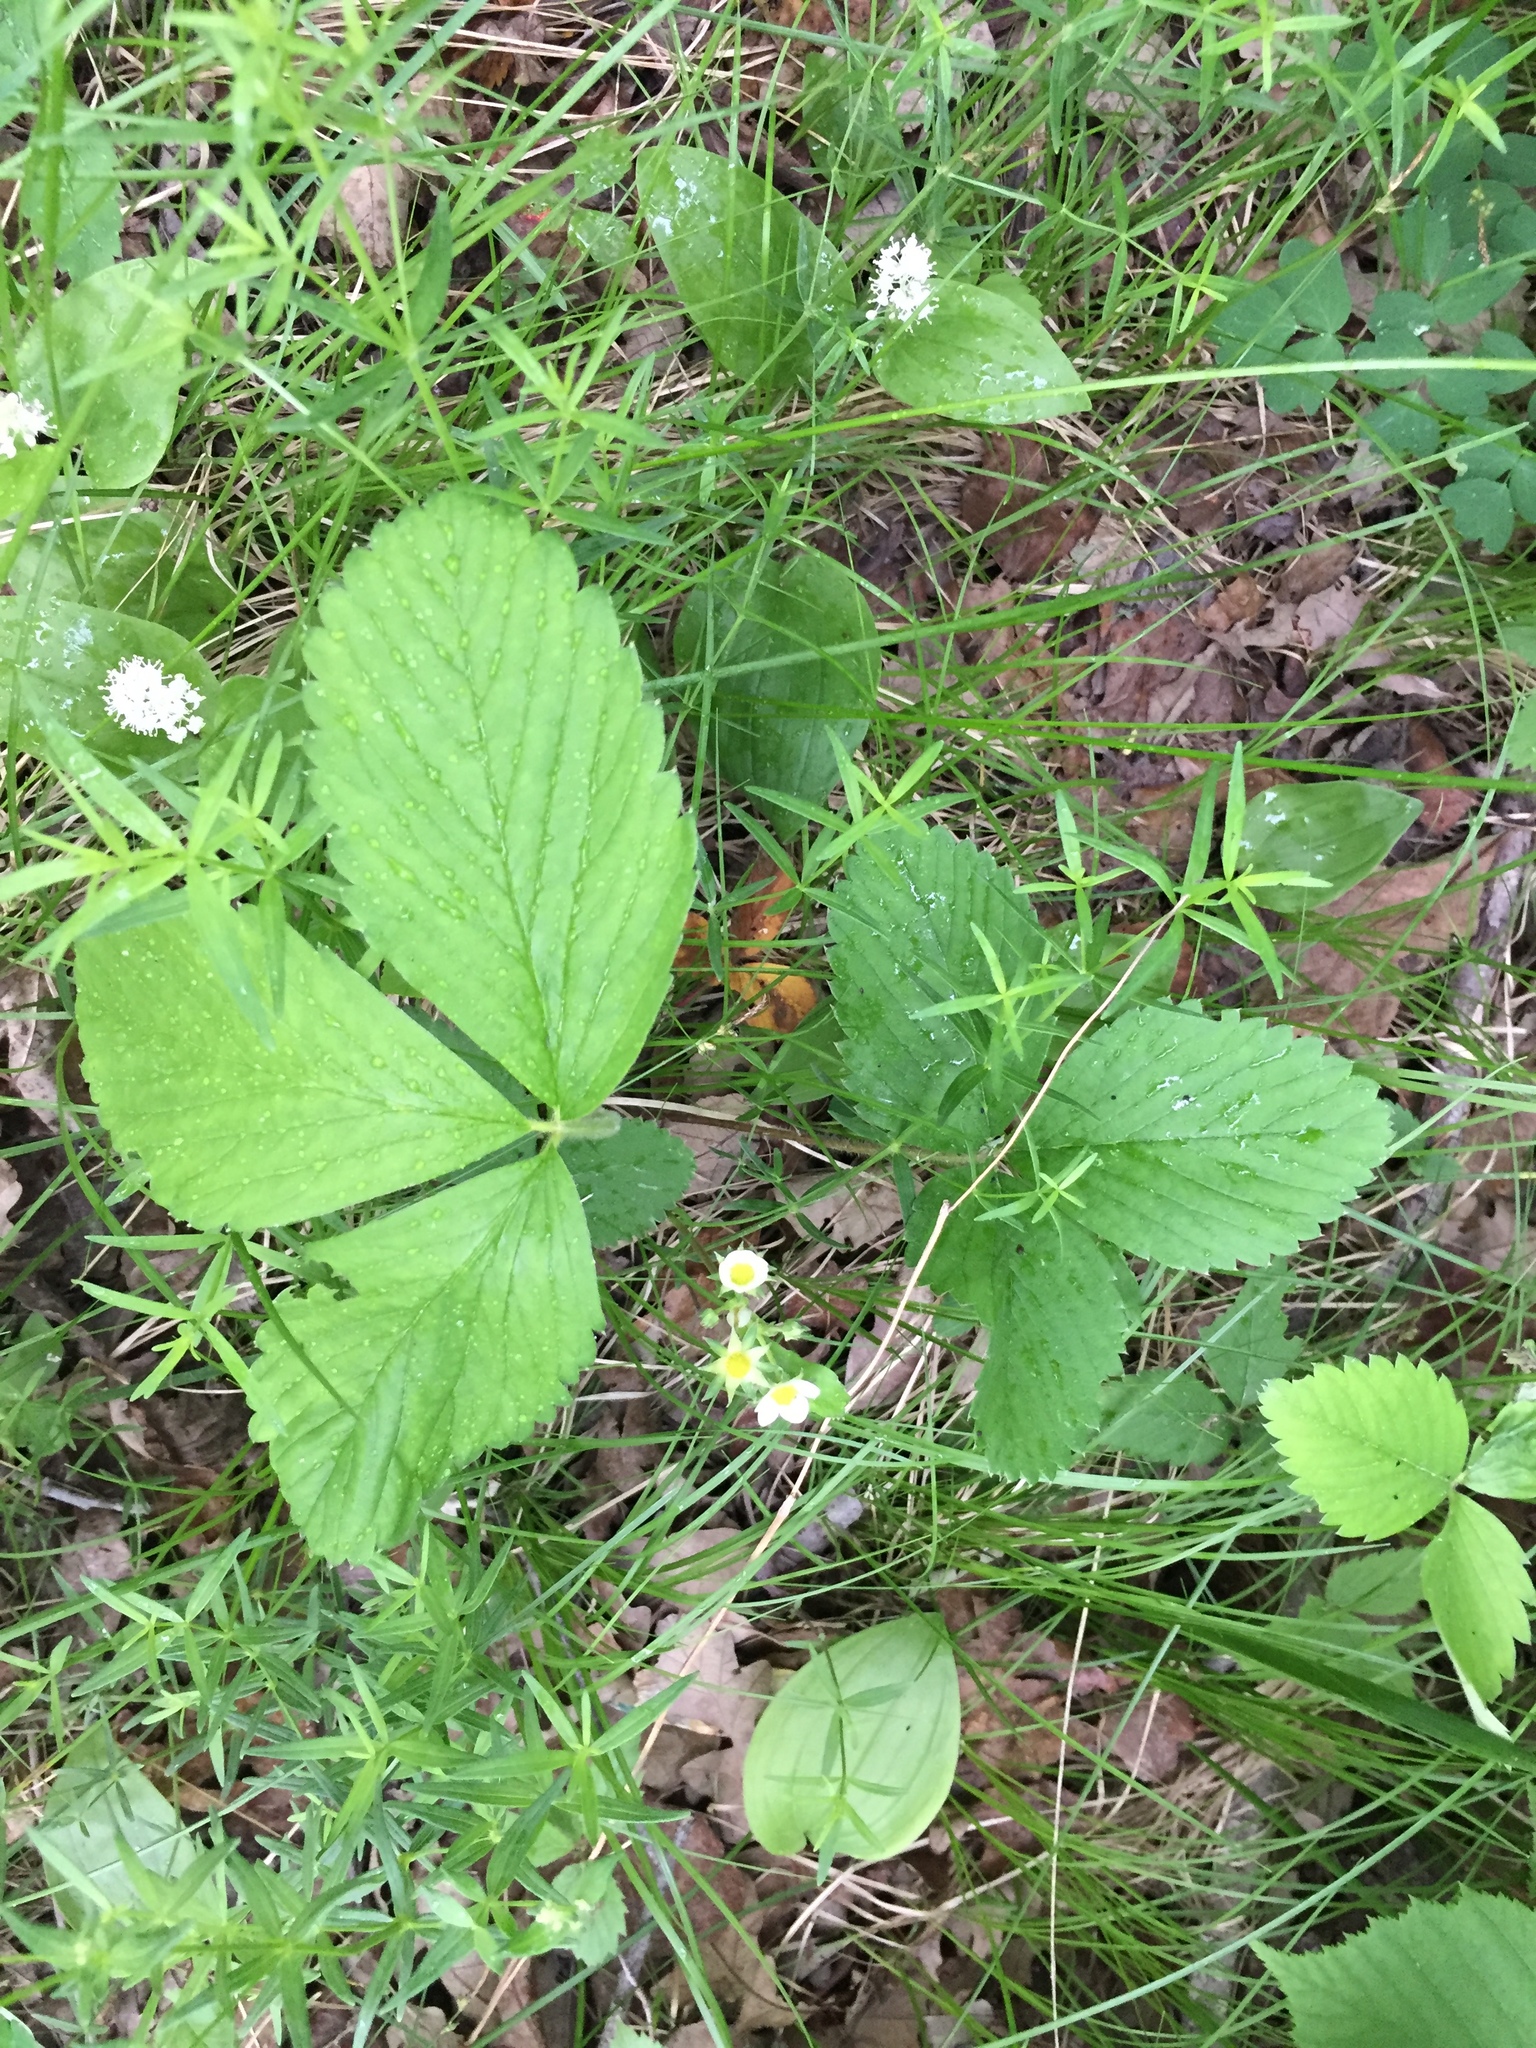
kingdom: Plantae
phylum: Tracheophyta
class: Magnoliopsida
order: Rosales
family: Rosaceae
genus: Fragaria
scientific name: Fragaria virginiana
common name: Thickleaved wild strawberry
